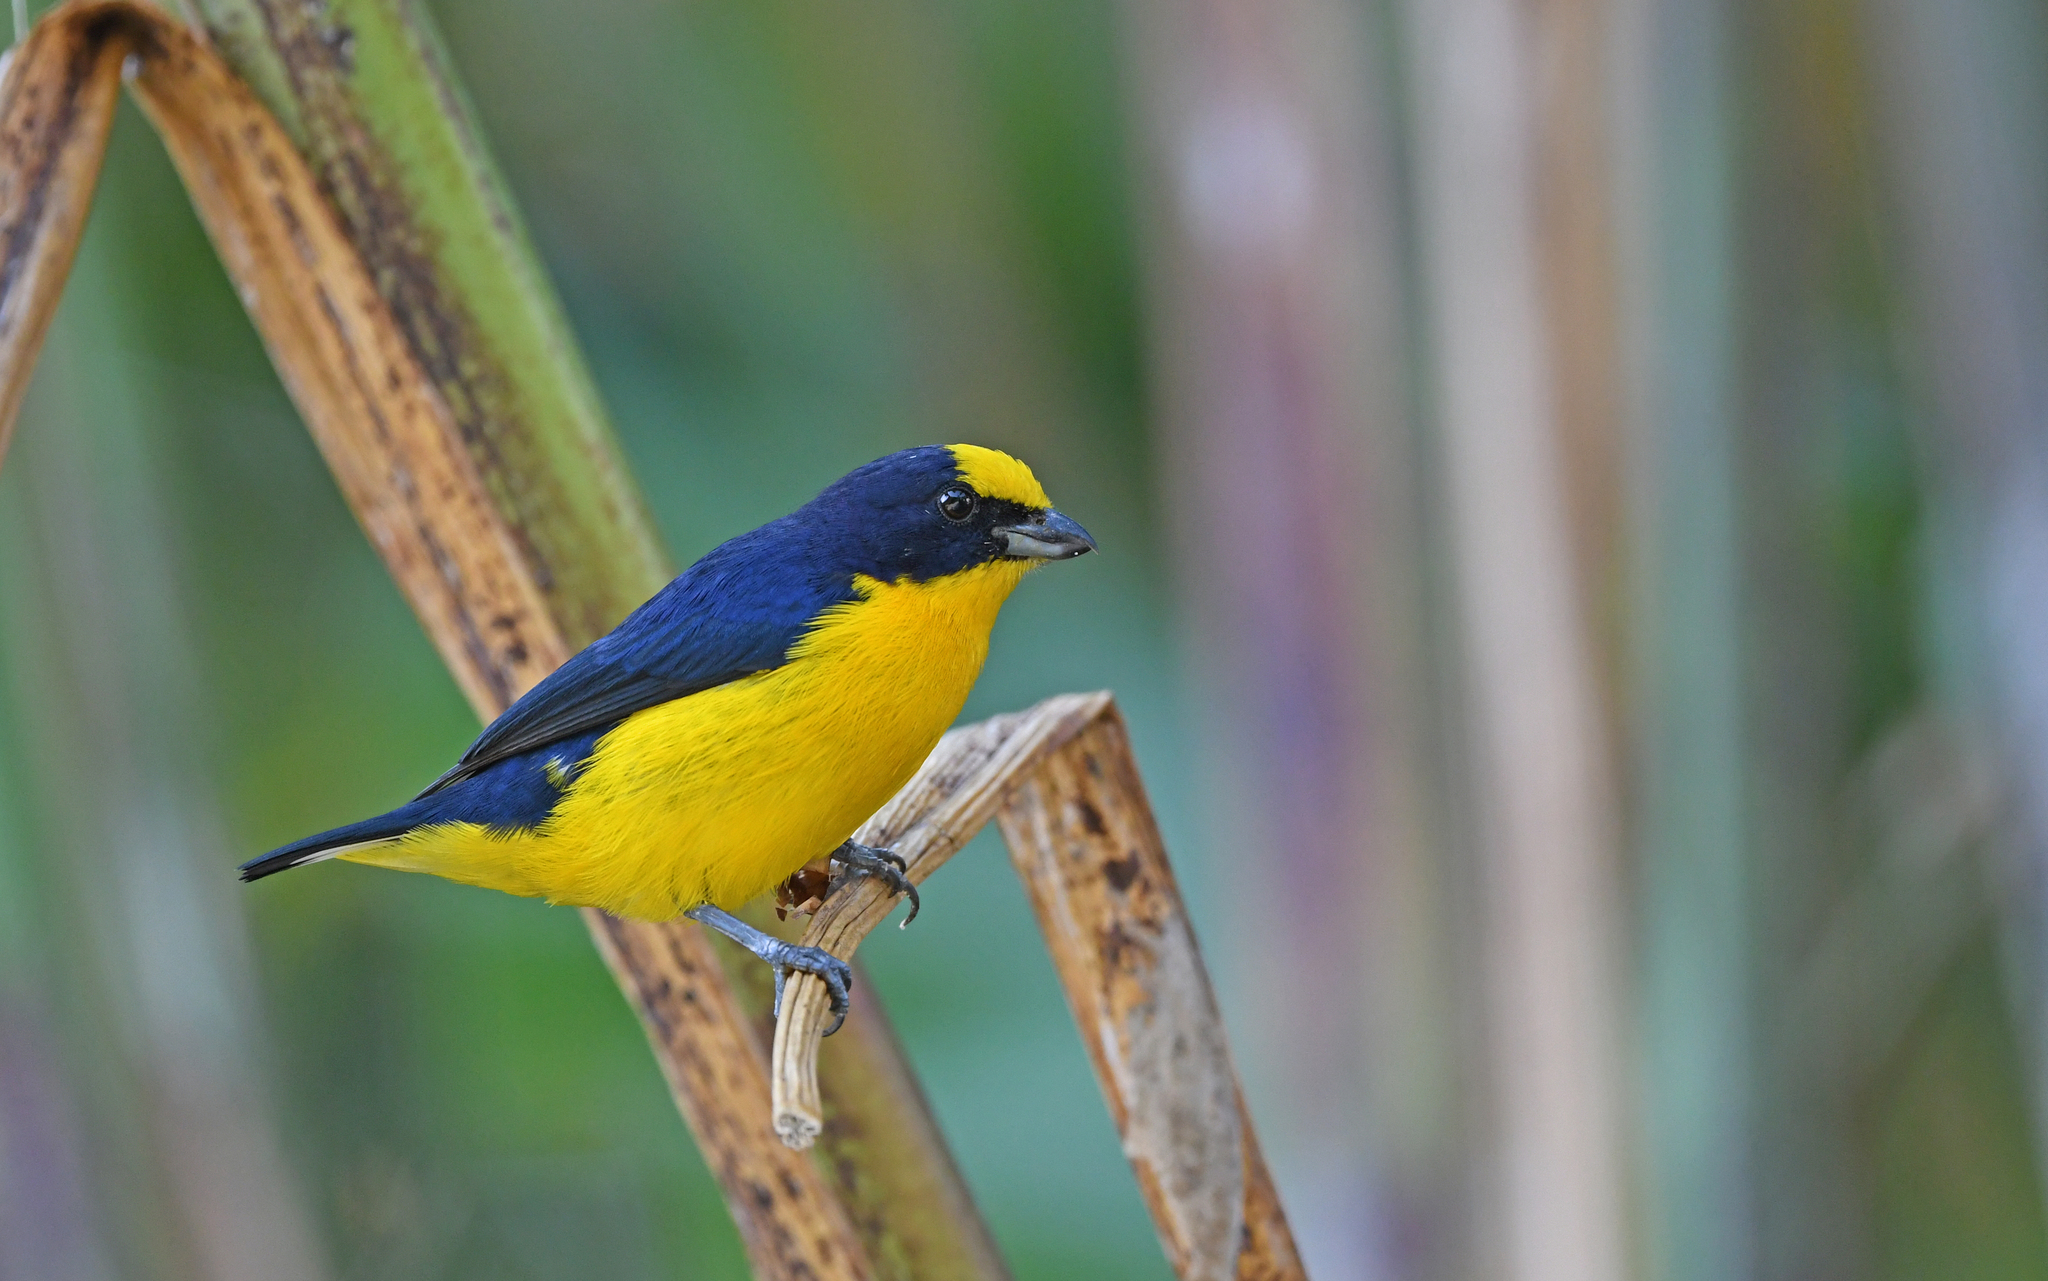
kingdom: Animalia
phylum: Chordata
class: Aves
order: Passeriformes
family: Fringillidae
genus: Euphonia
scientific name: Euphonia laniirostris
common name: Thick-billed euphonia
